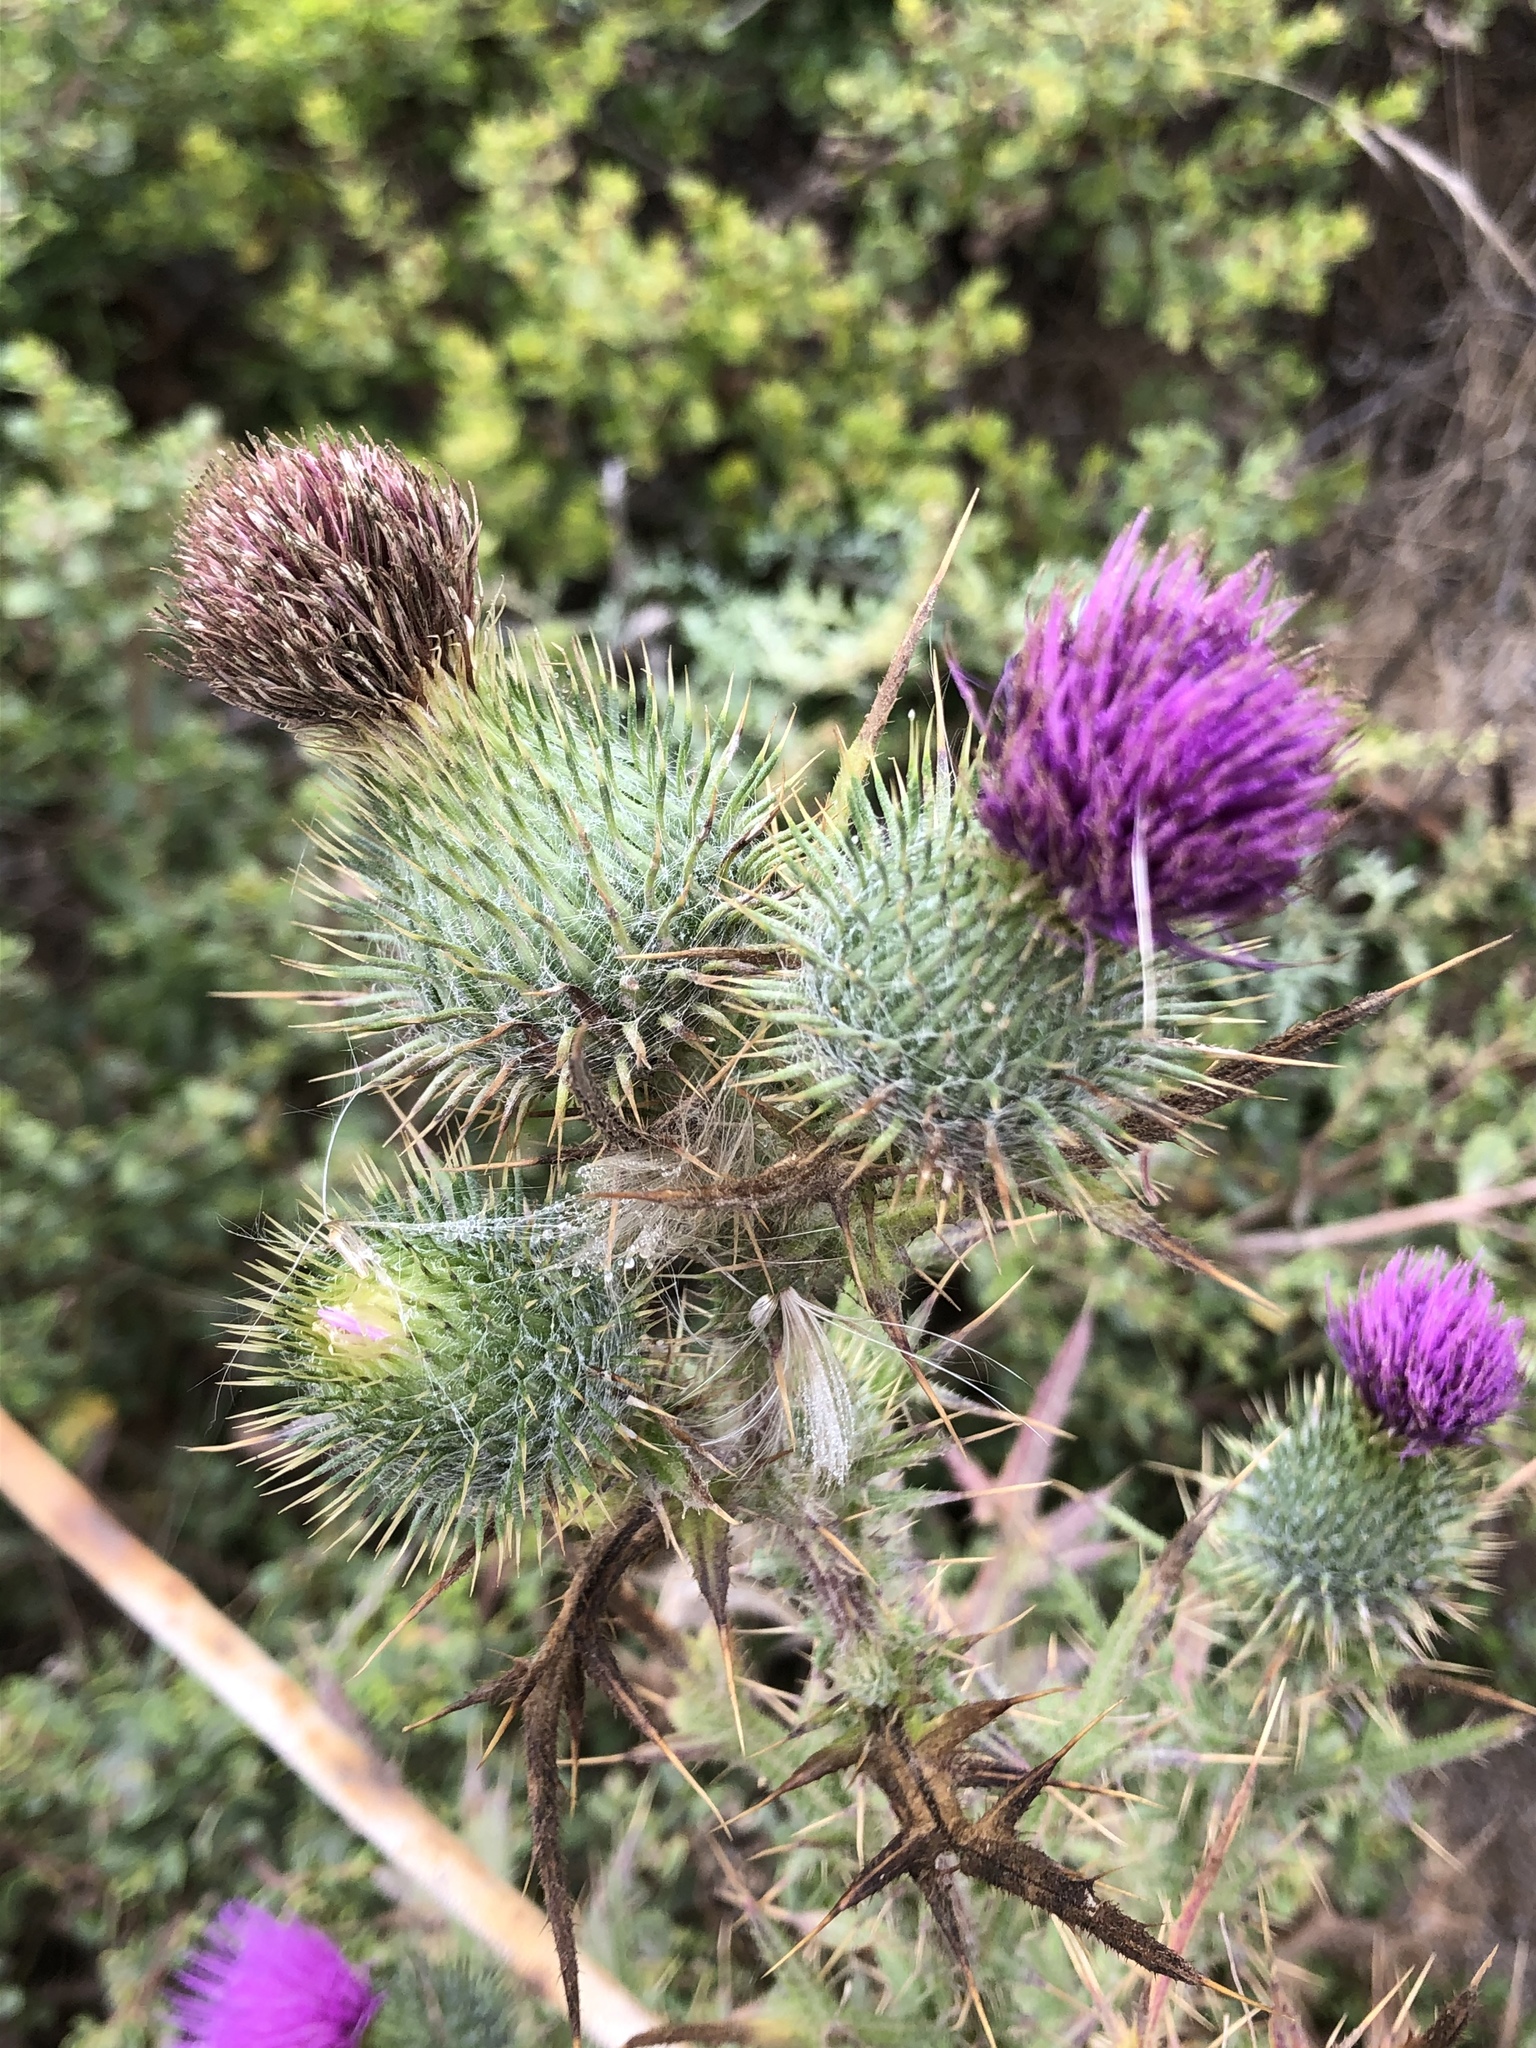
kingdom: Plantae
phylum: Tracheophyta
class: Magnoliopsida
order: Asterales
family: Asteraceae
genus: Cirsium
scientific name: Cirsium vulgare
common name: Bull thistle
